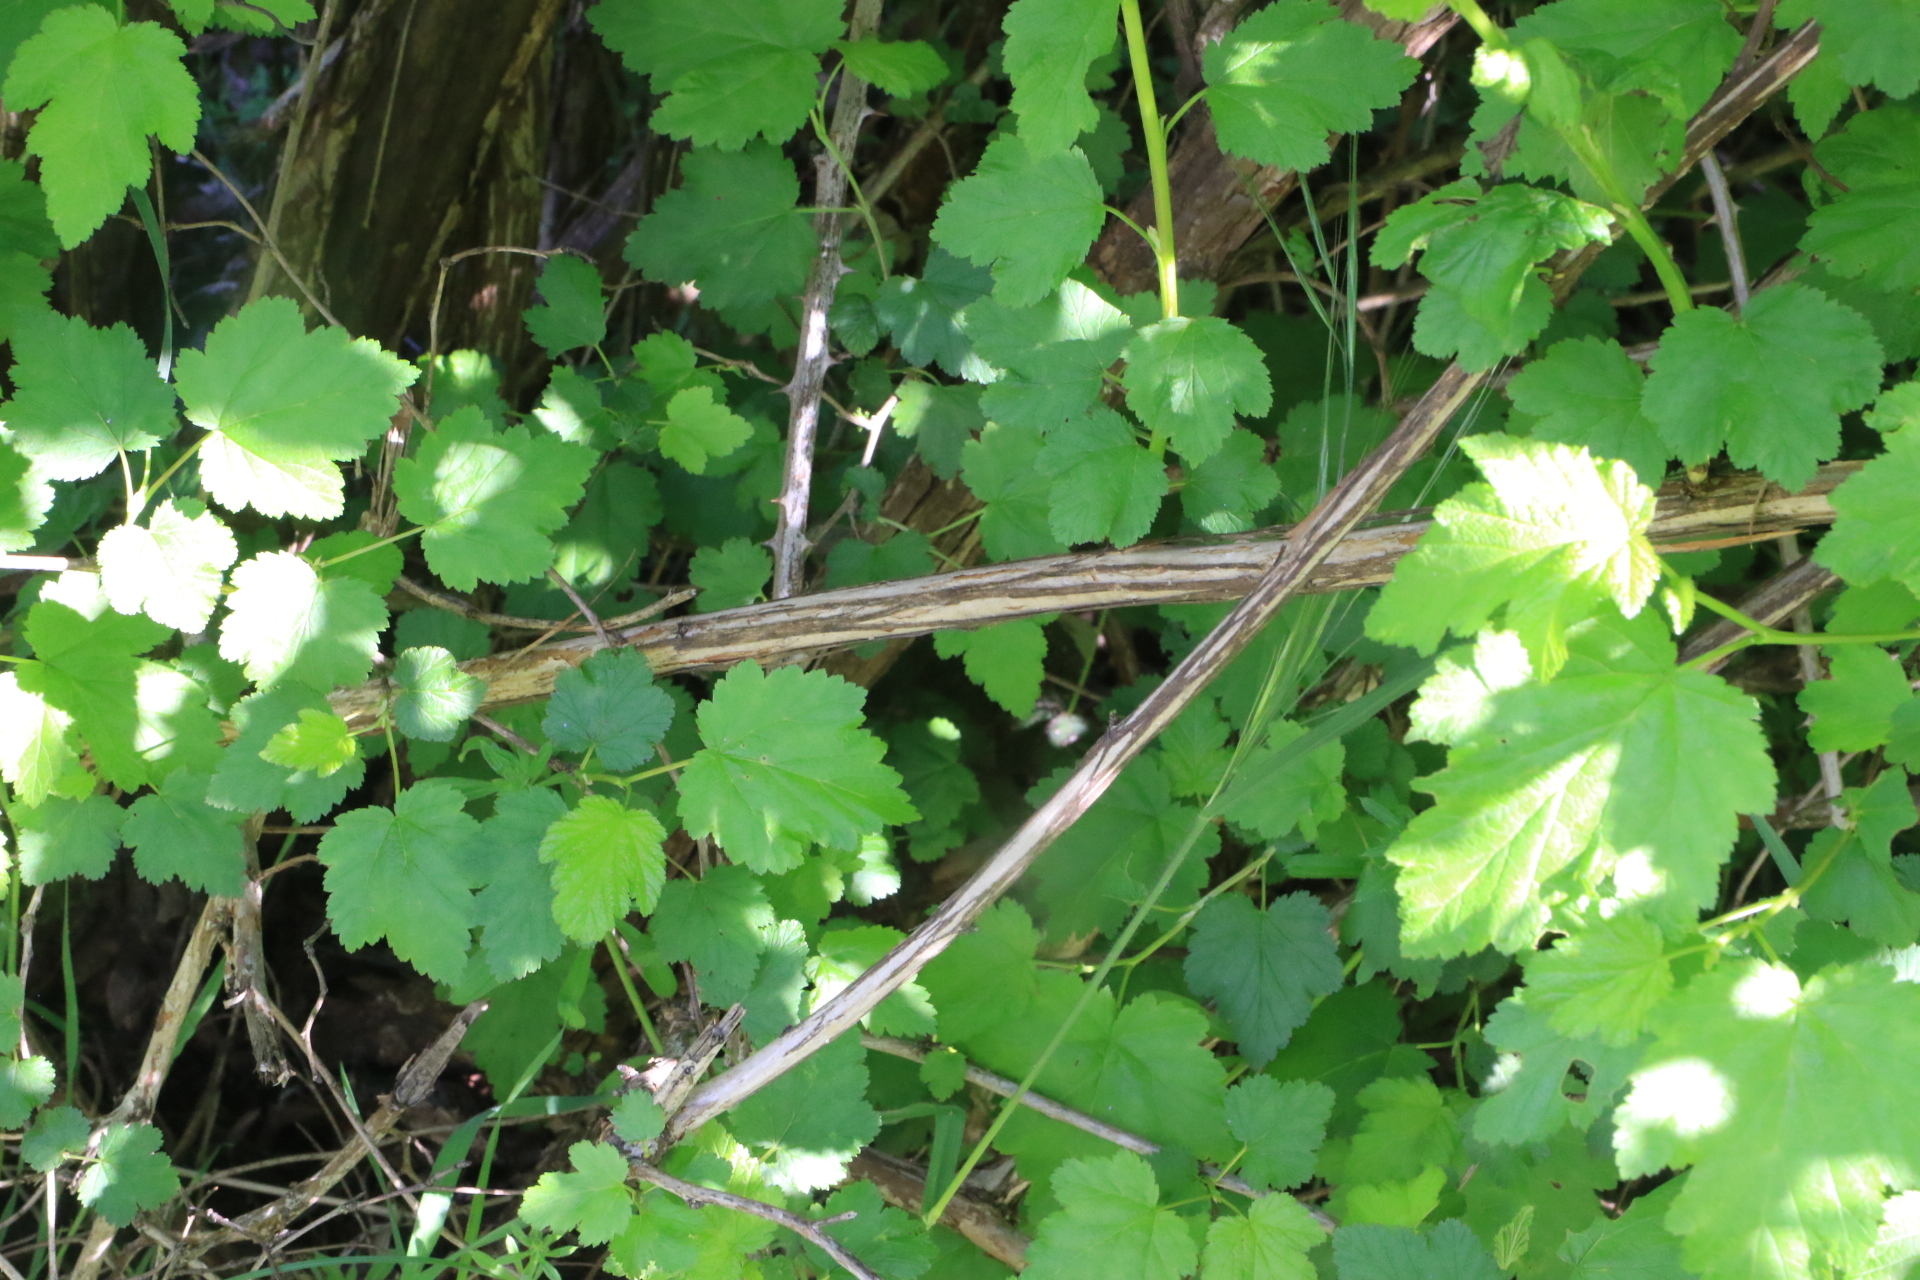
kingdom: Plantae
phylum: Tracheophyta
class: Magnoliopsida
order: Rosales
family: Rosaceae
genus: Physocarpus
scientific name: Physocarpus capitatus
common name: Pacific ninebark
